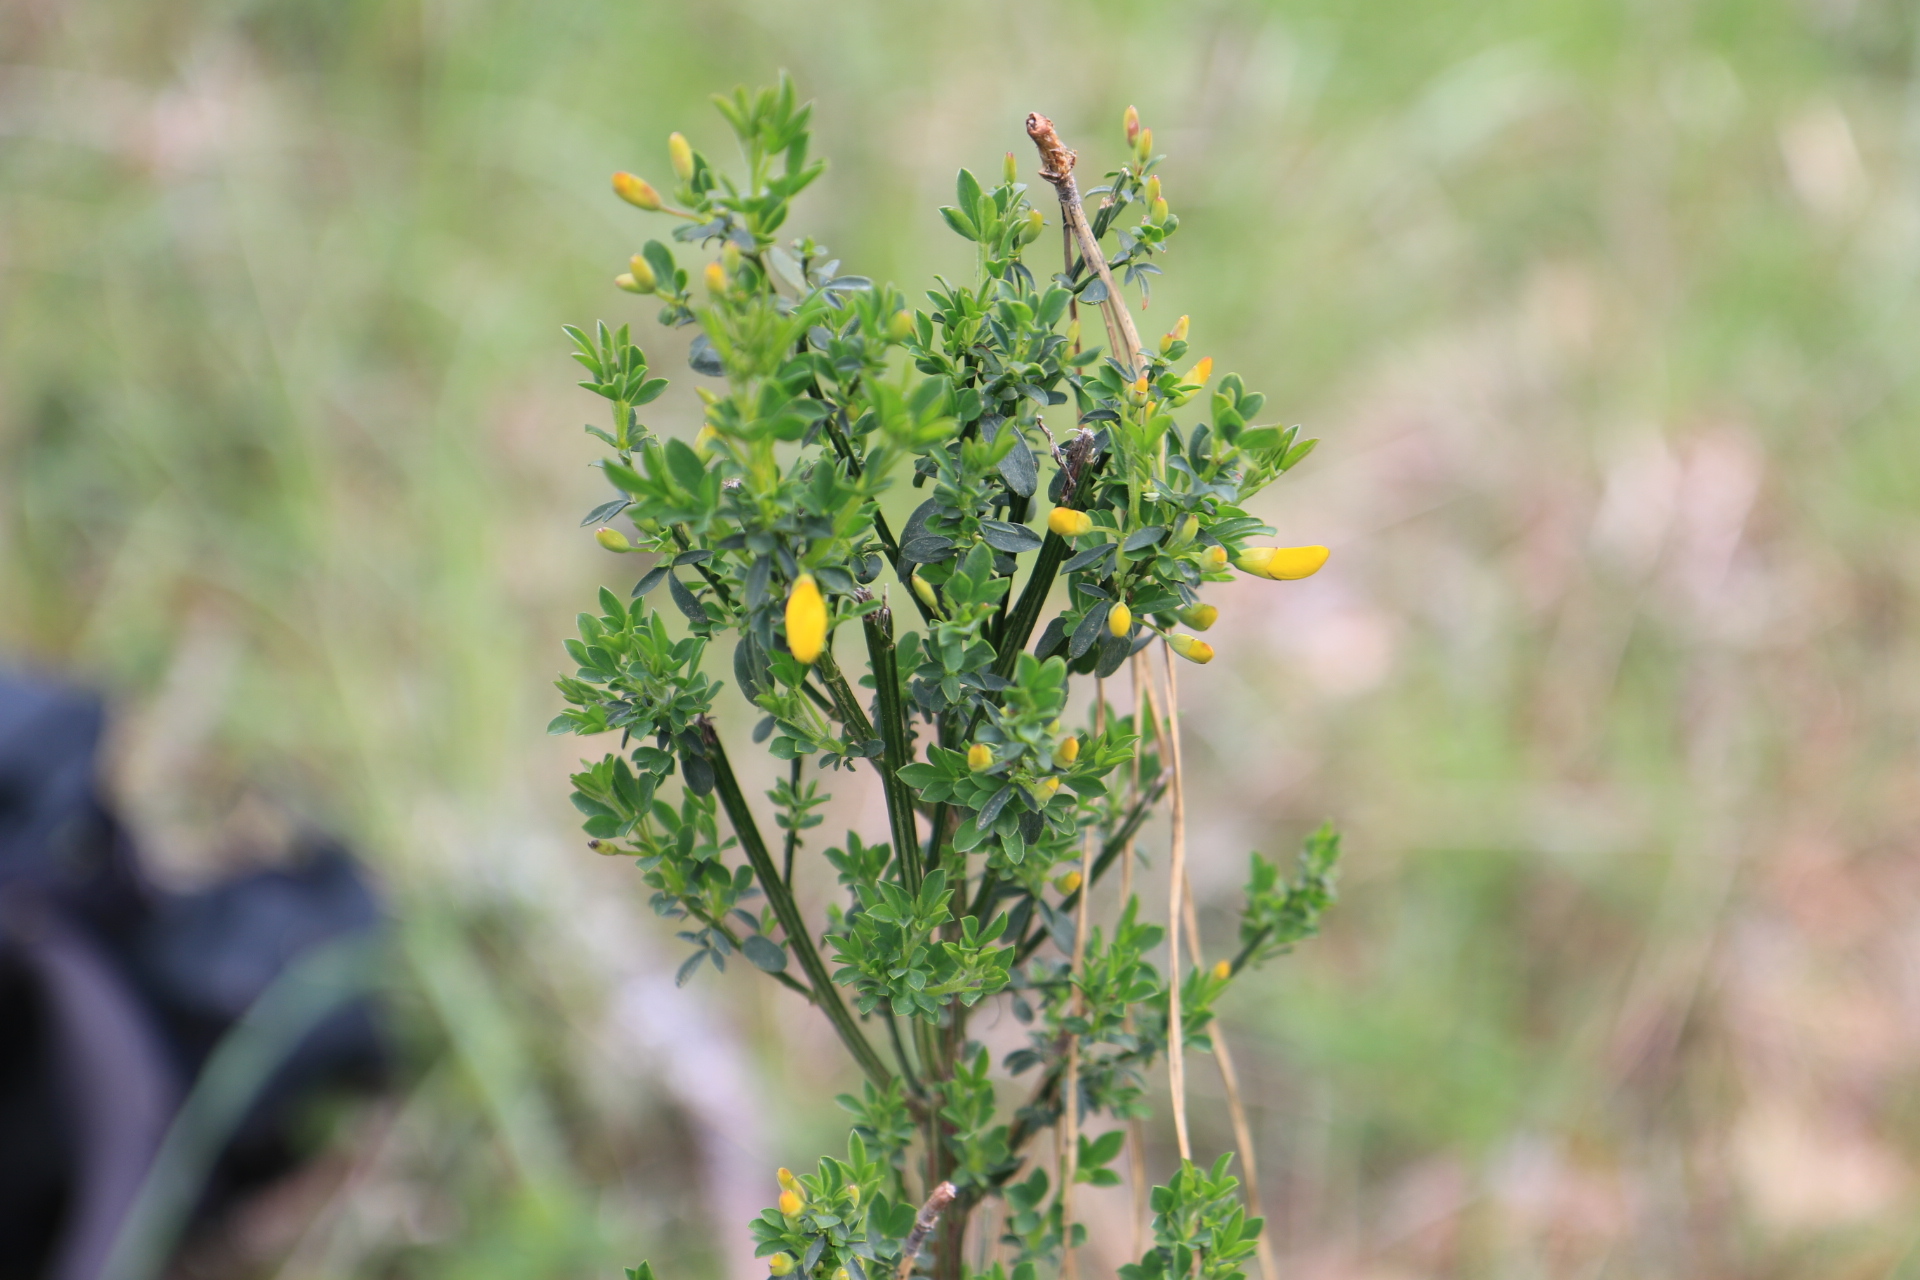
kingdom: Plantae
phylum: Tracheophyta
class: Magnoliopsida
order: Fabales
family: Fabaceae
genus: Cytisus
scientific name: Cytisus scoparius
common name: Scotch broom
